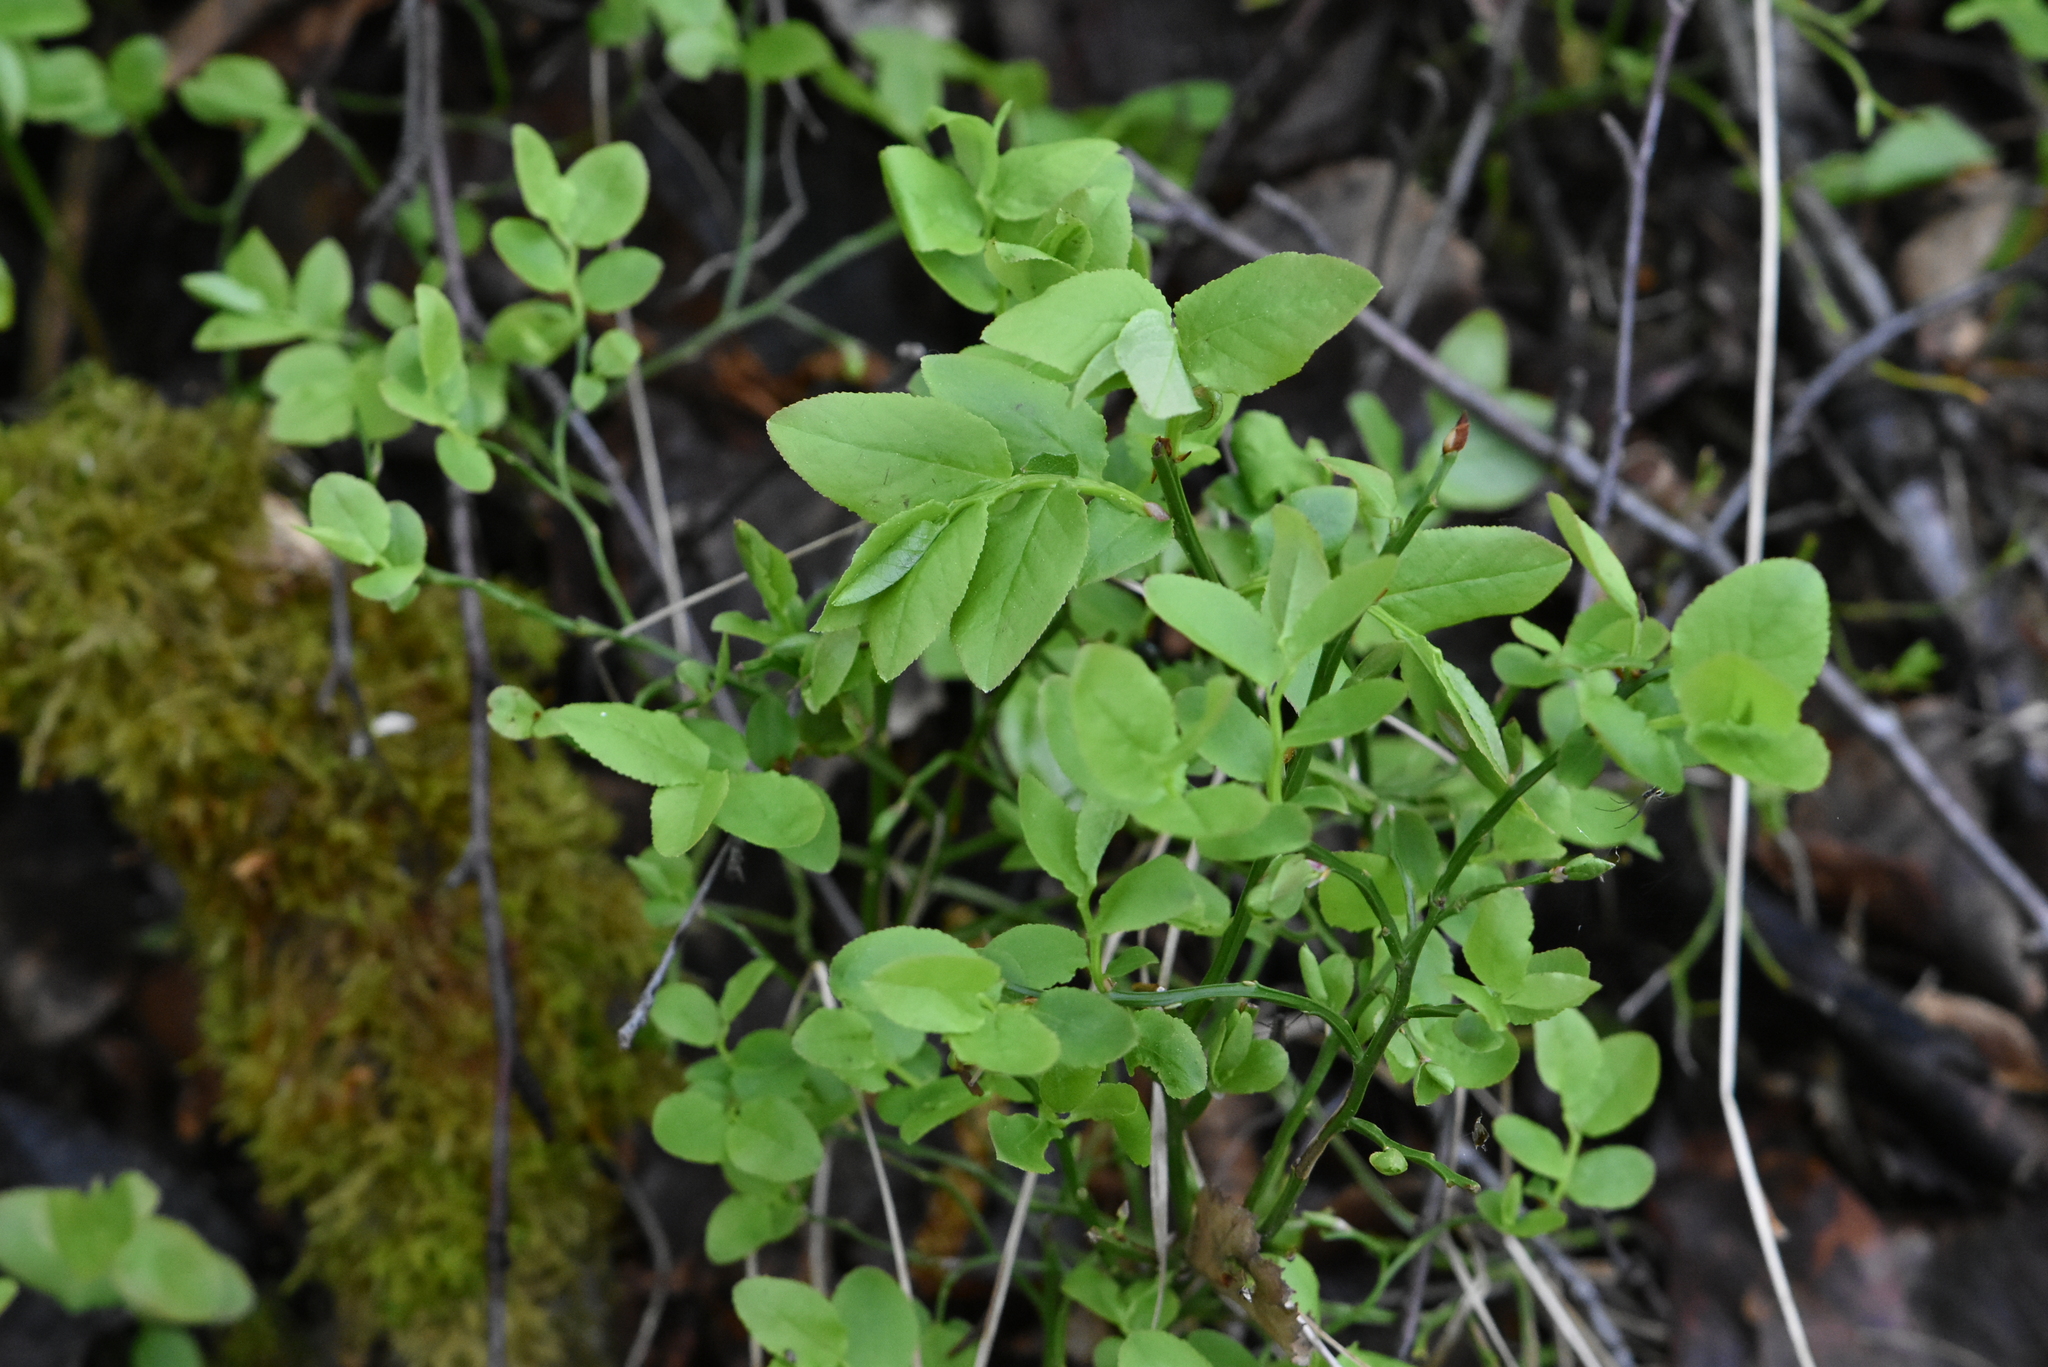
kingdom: Plantae
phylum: Tracheophyta
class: Magnoliopsida
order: Ericales
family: Ericaceae
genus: Vaccinium
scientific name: Vaccinium myrtillus
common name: Bilberry
